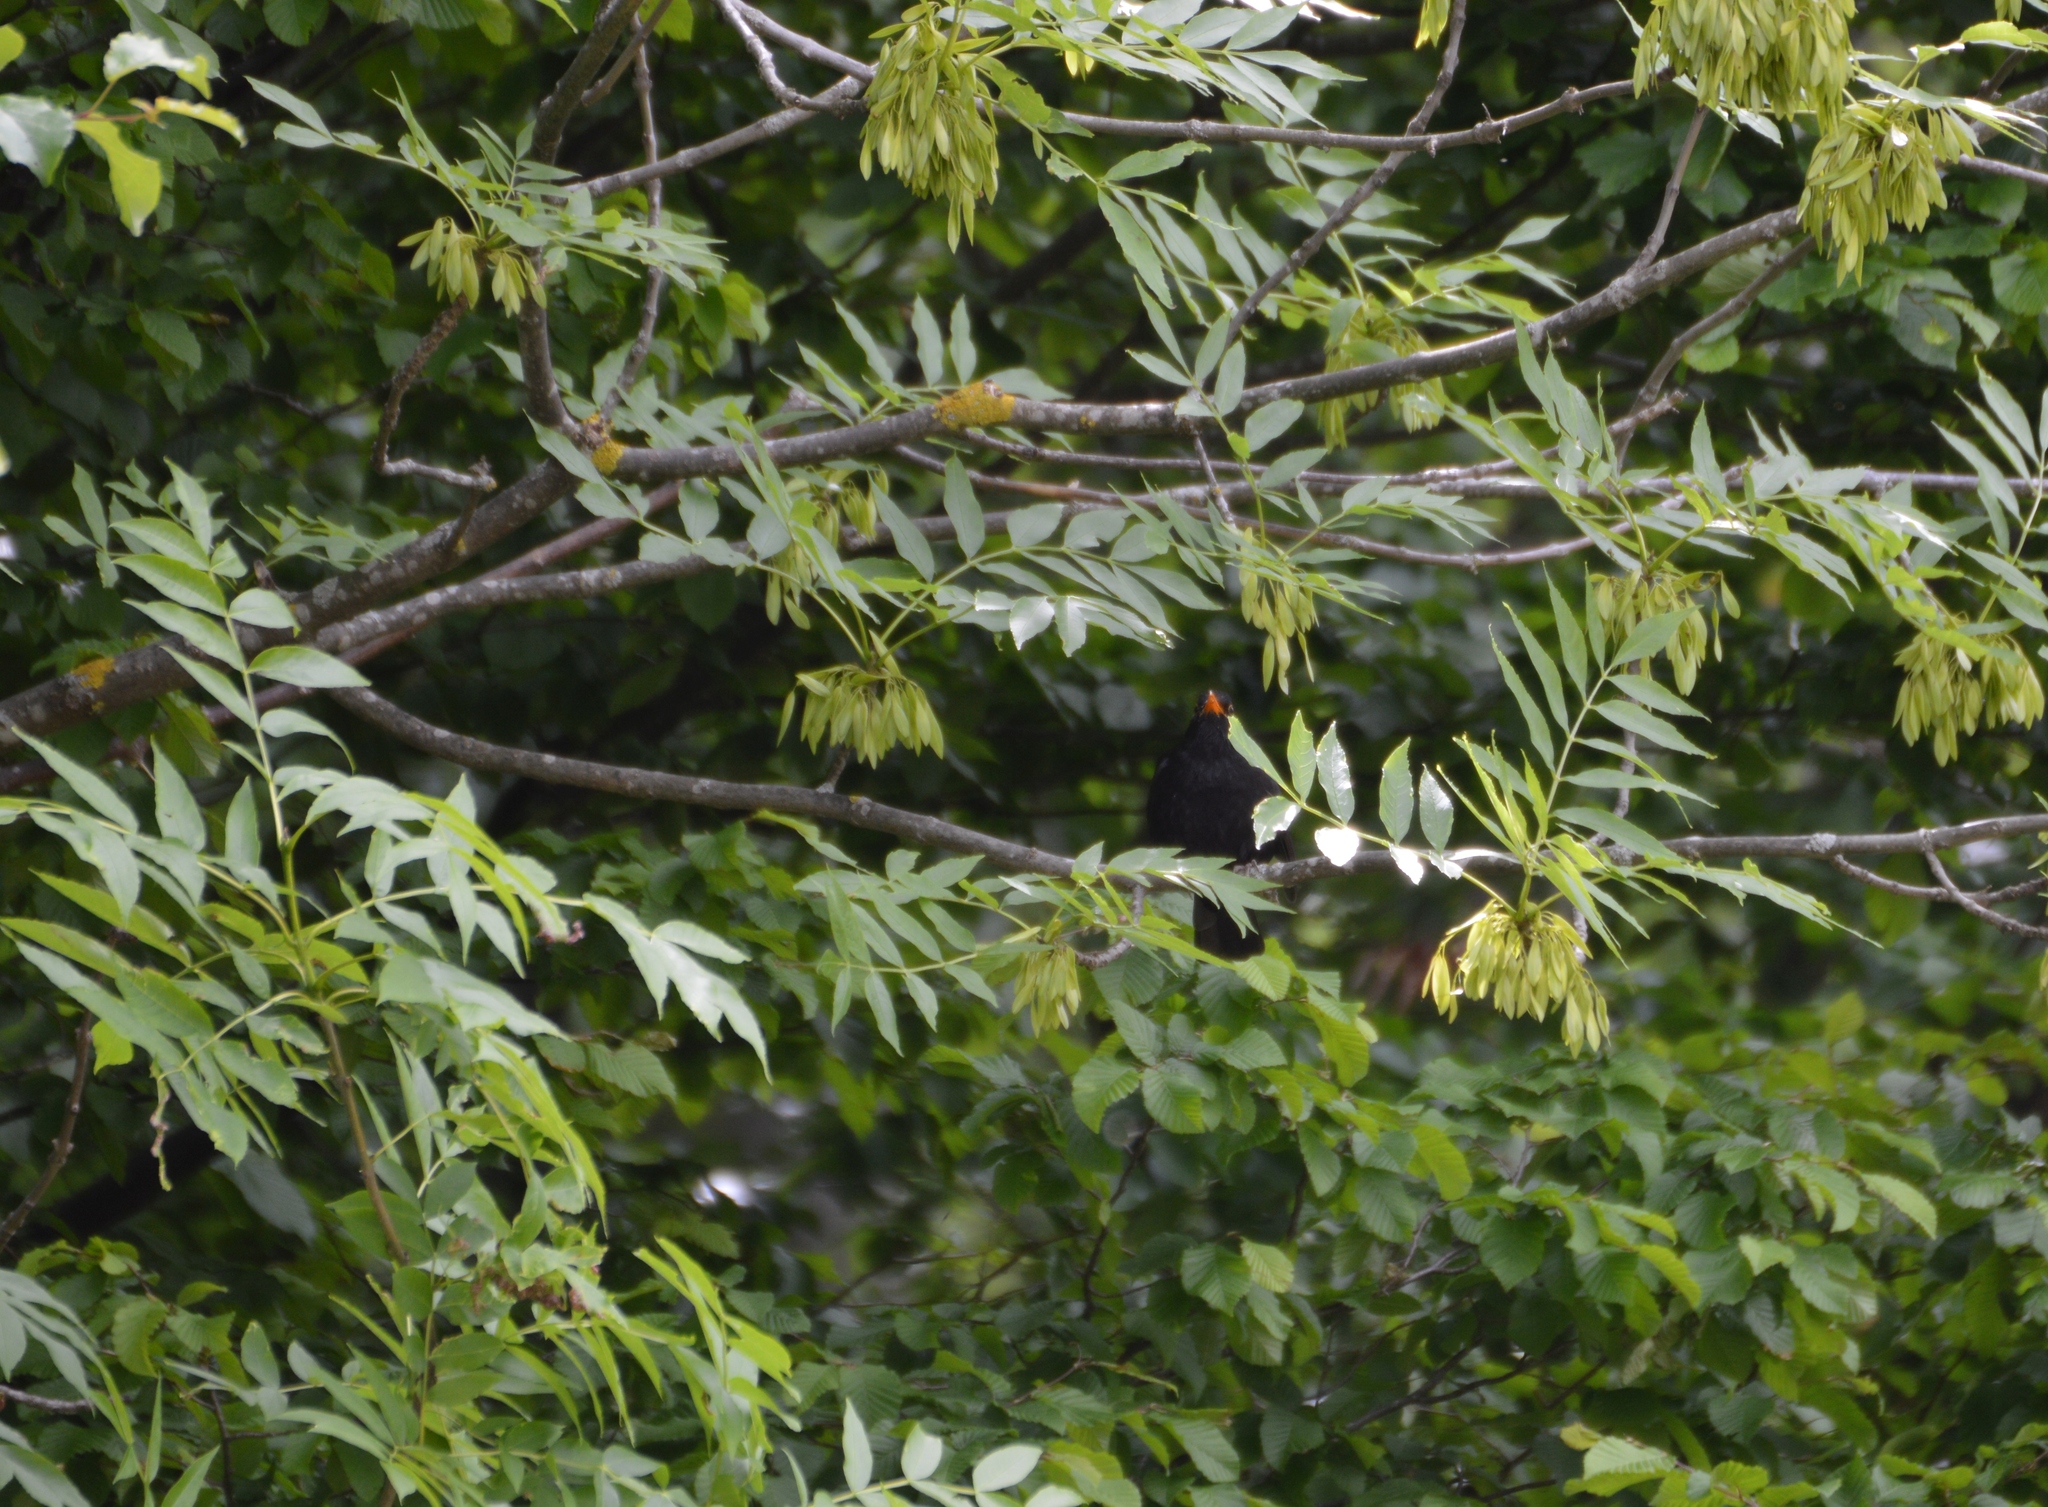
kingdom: Animalia
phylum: Chordata
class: Aves
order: Passeriformes
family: Turdidae
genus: Turdus
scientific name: Turdus merula
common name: Common blackbird
